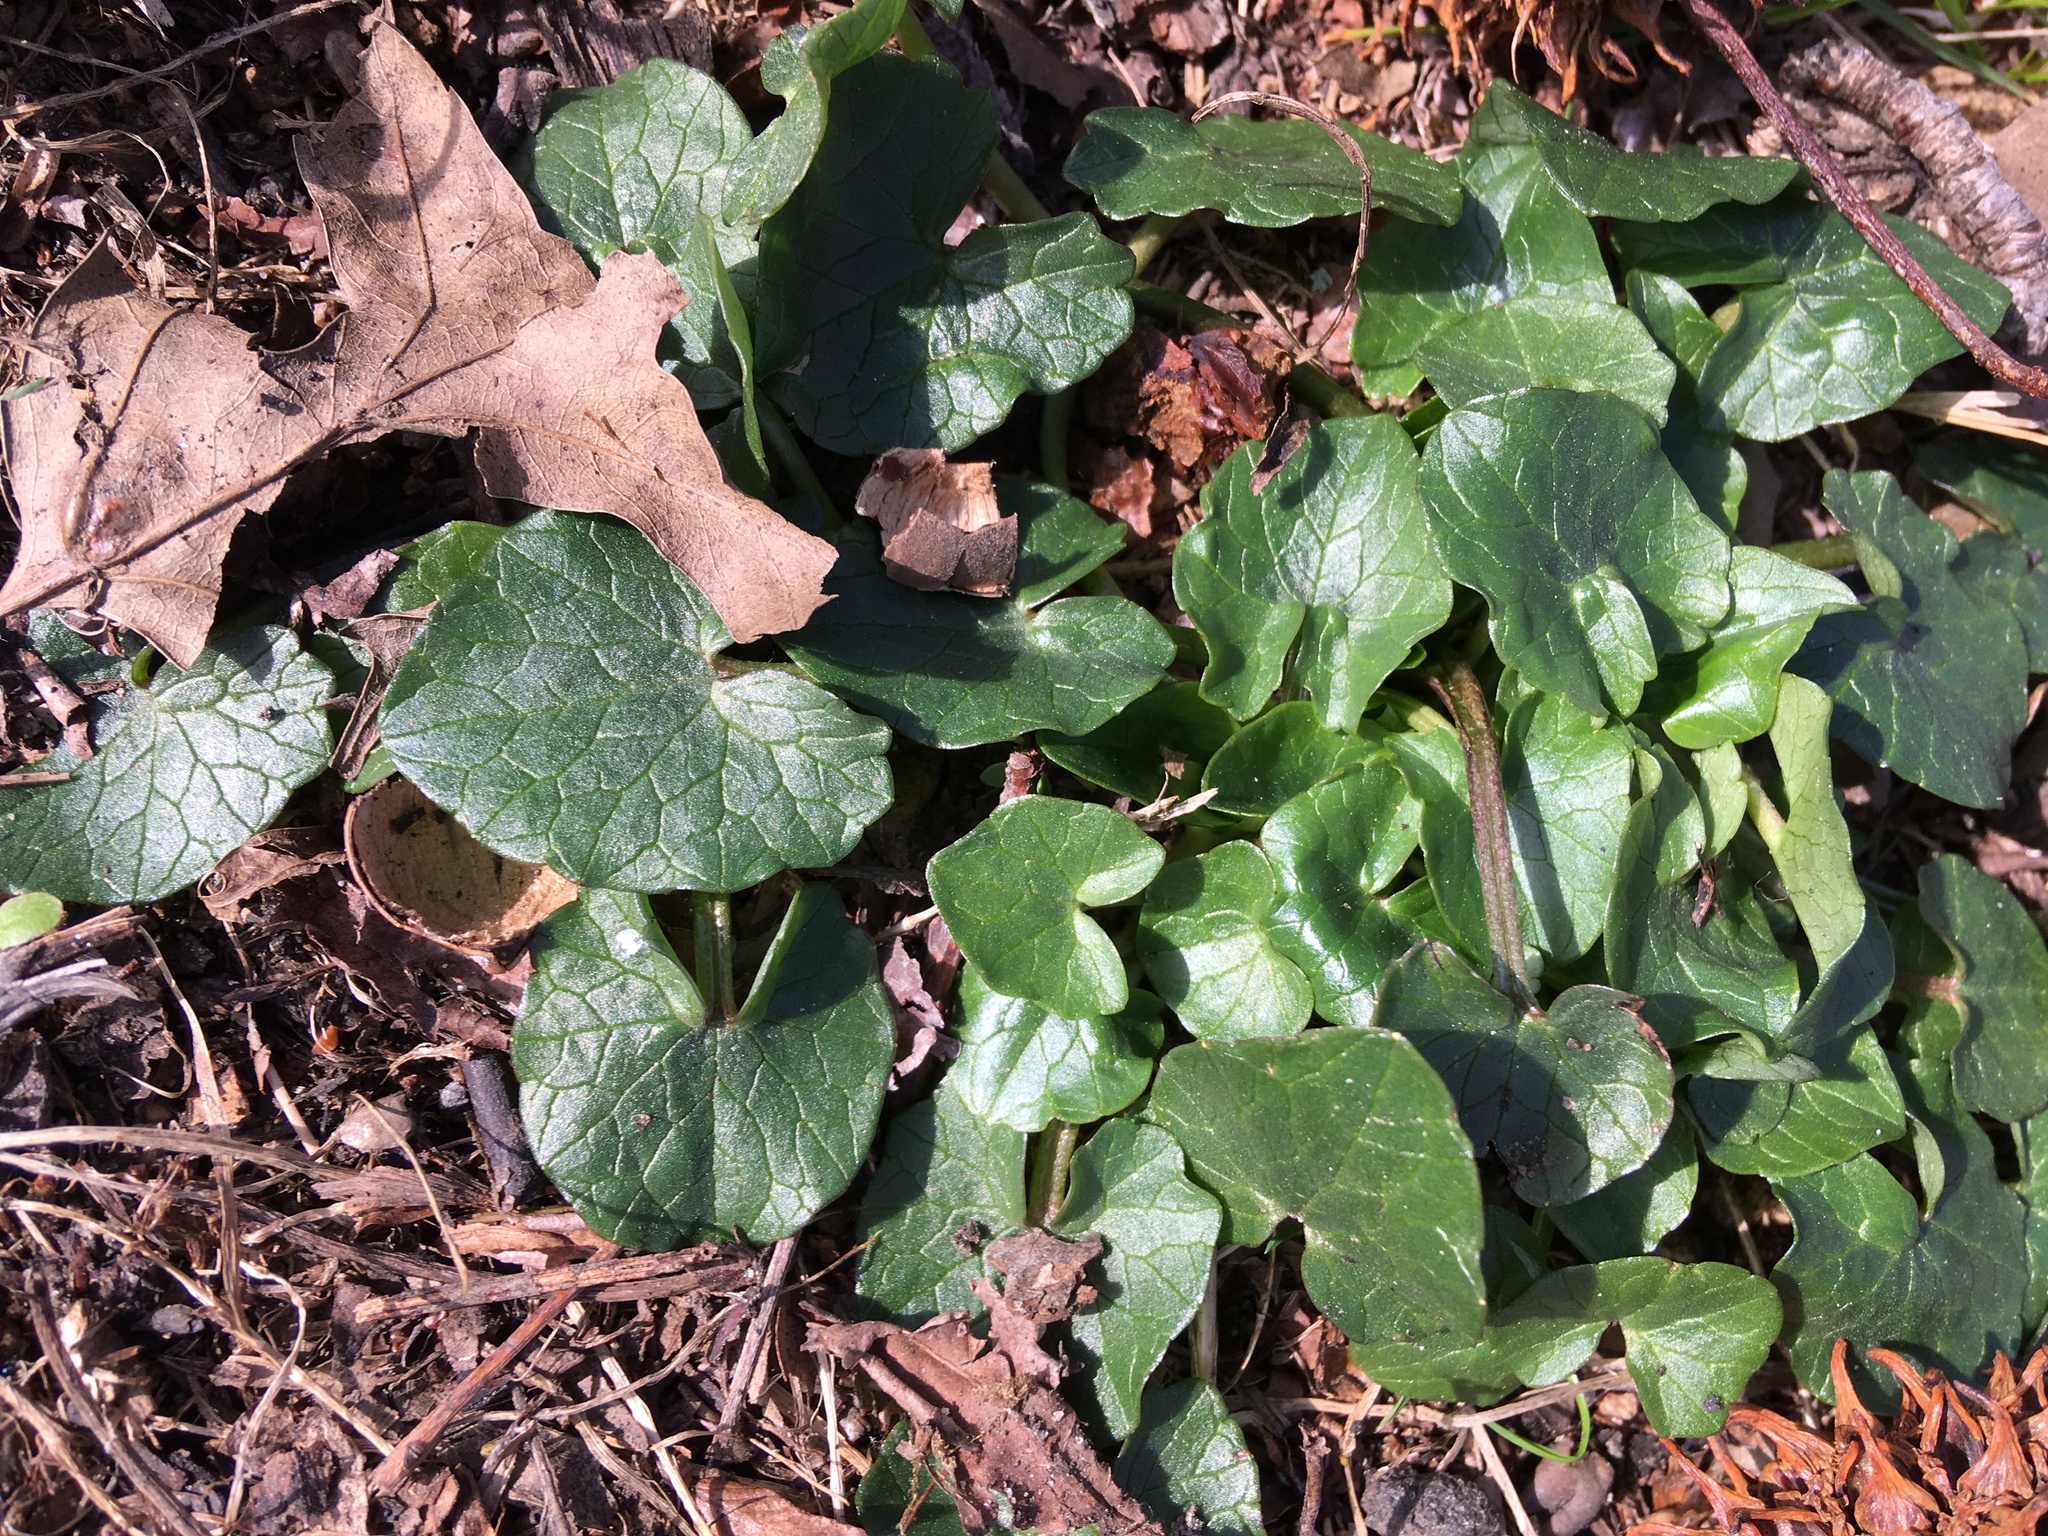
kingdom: Plantae
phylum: Tracheophyta
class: Magnoliopsida
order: Ranunculales
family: Ranunculaceae
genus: Ficaria
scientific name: Ficaria verna
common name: Lesser celandine
